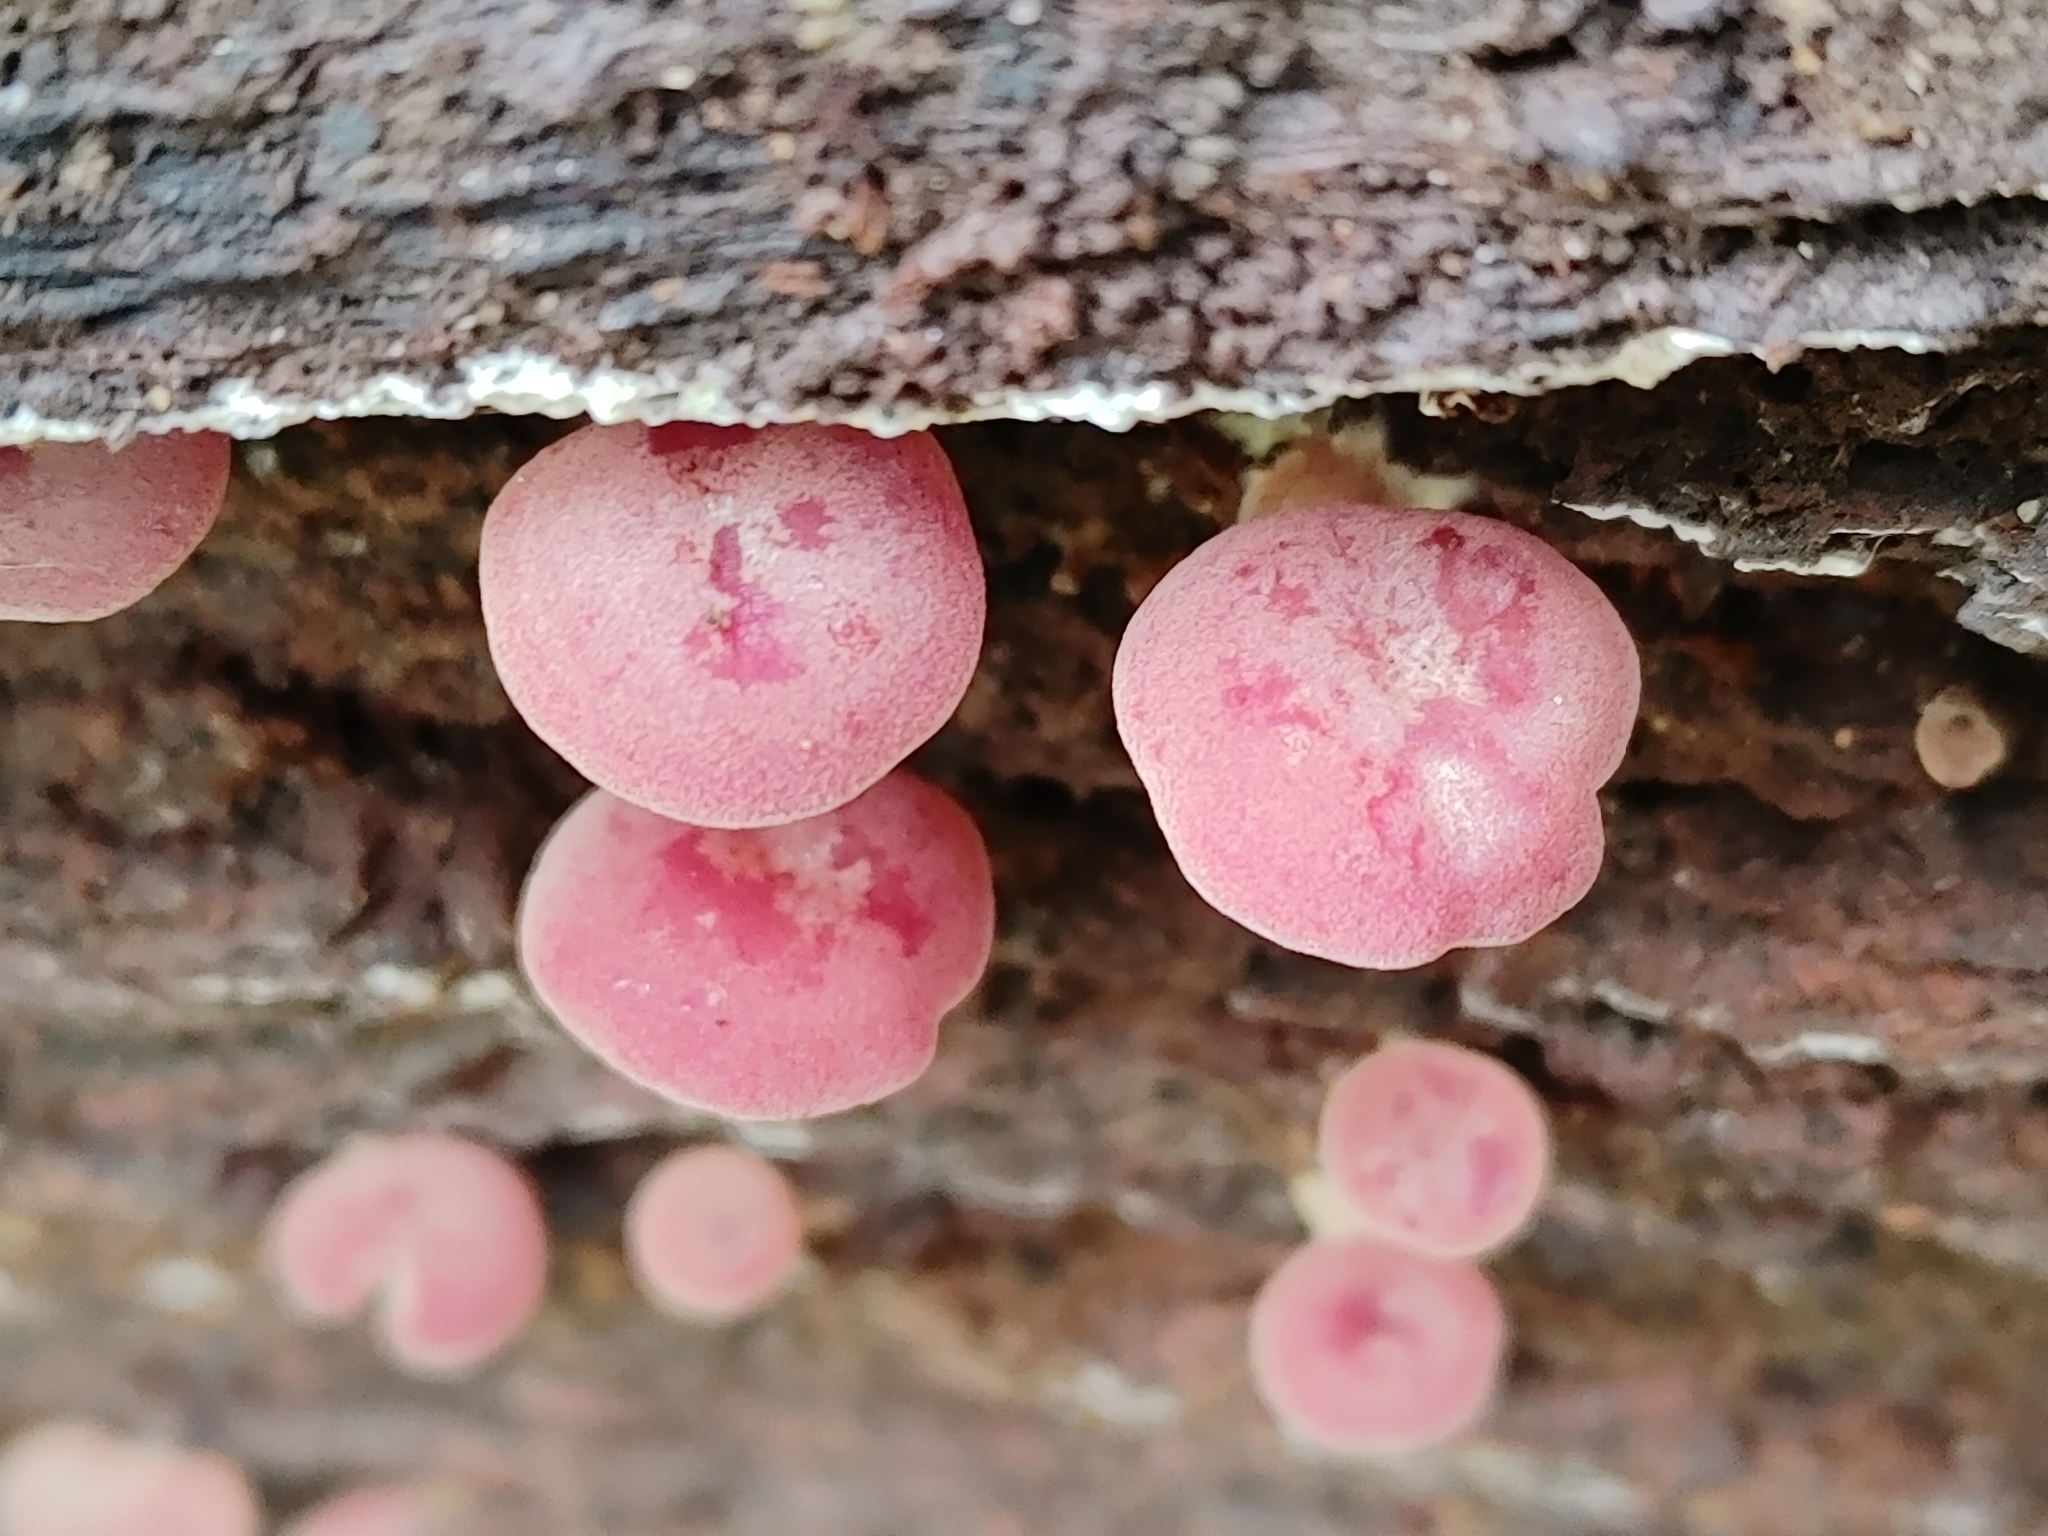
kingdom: Fungi
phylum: Basidiomycota
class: Agaricomycetes
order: Agaricales
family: Callistosporiaceae
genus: Callistosporium
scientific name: Callistosporium purpureomarginatum
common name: Purple-edged lute
